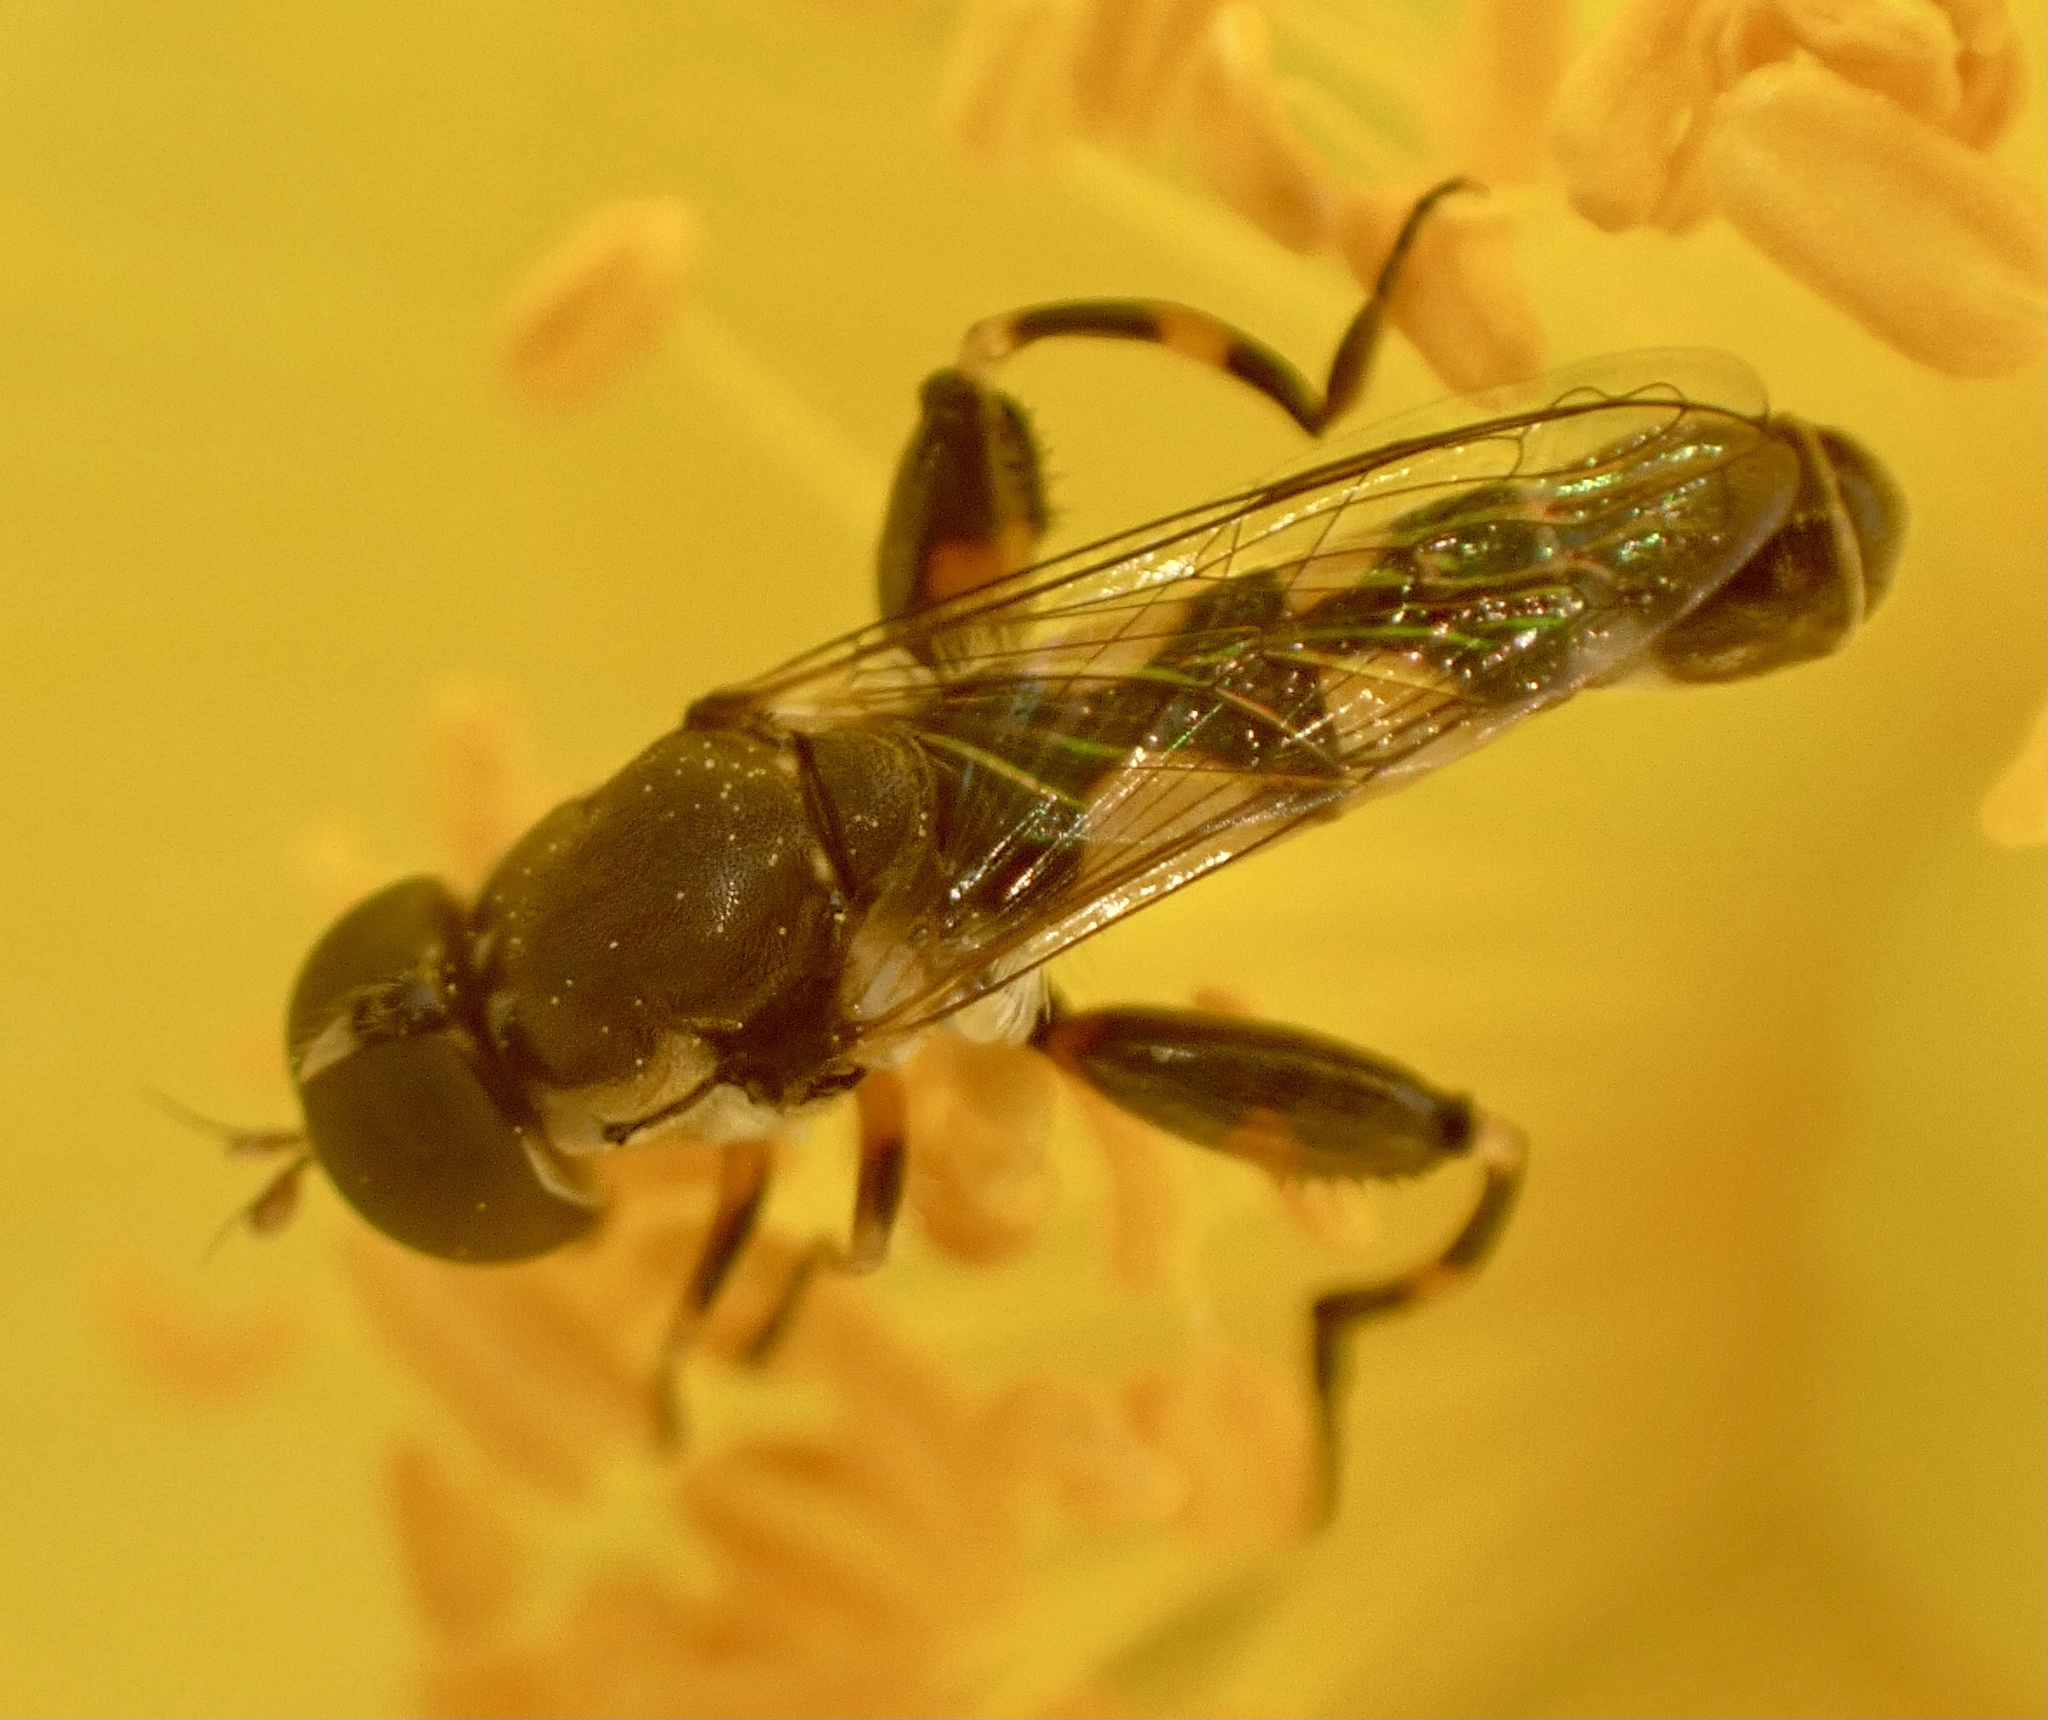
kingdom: Animalia
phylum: Arthropoda
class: Insecta
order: Diptera
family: Syrphidae
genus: Syritta
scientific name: Syritta pipiens
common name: Hover fly
